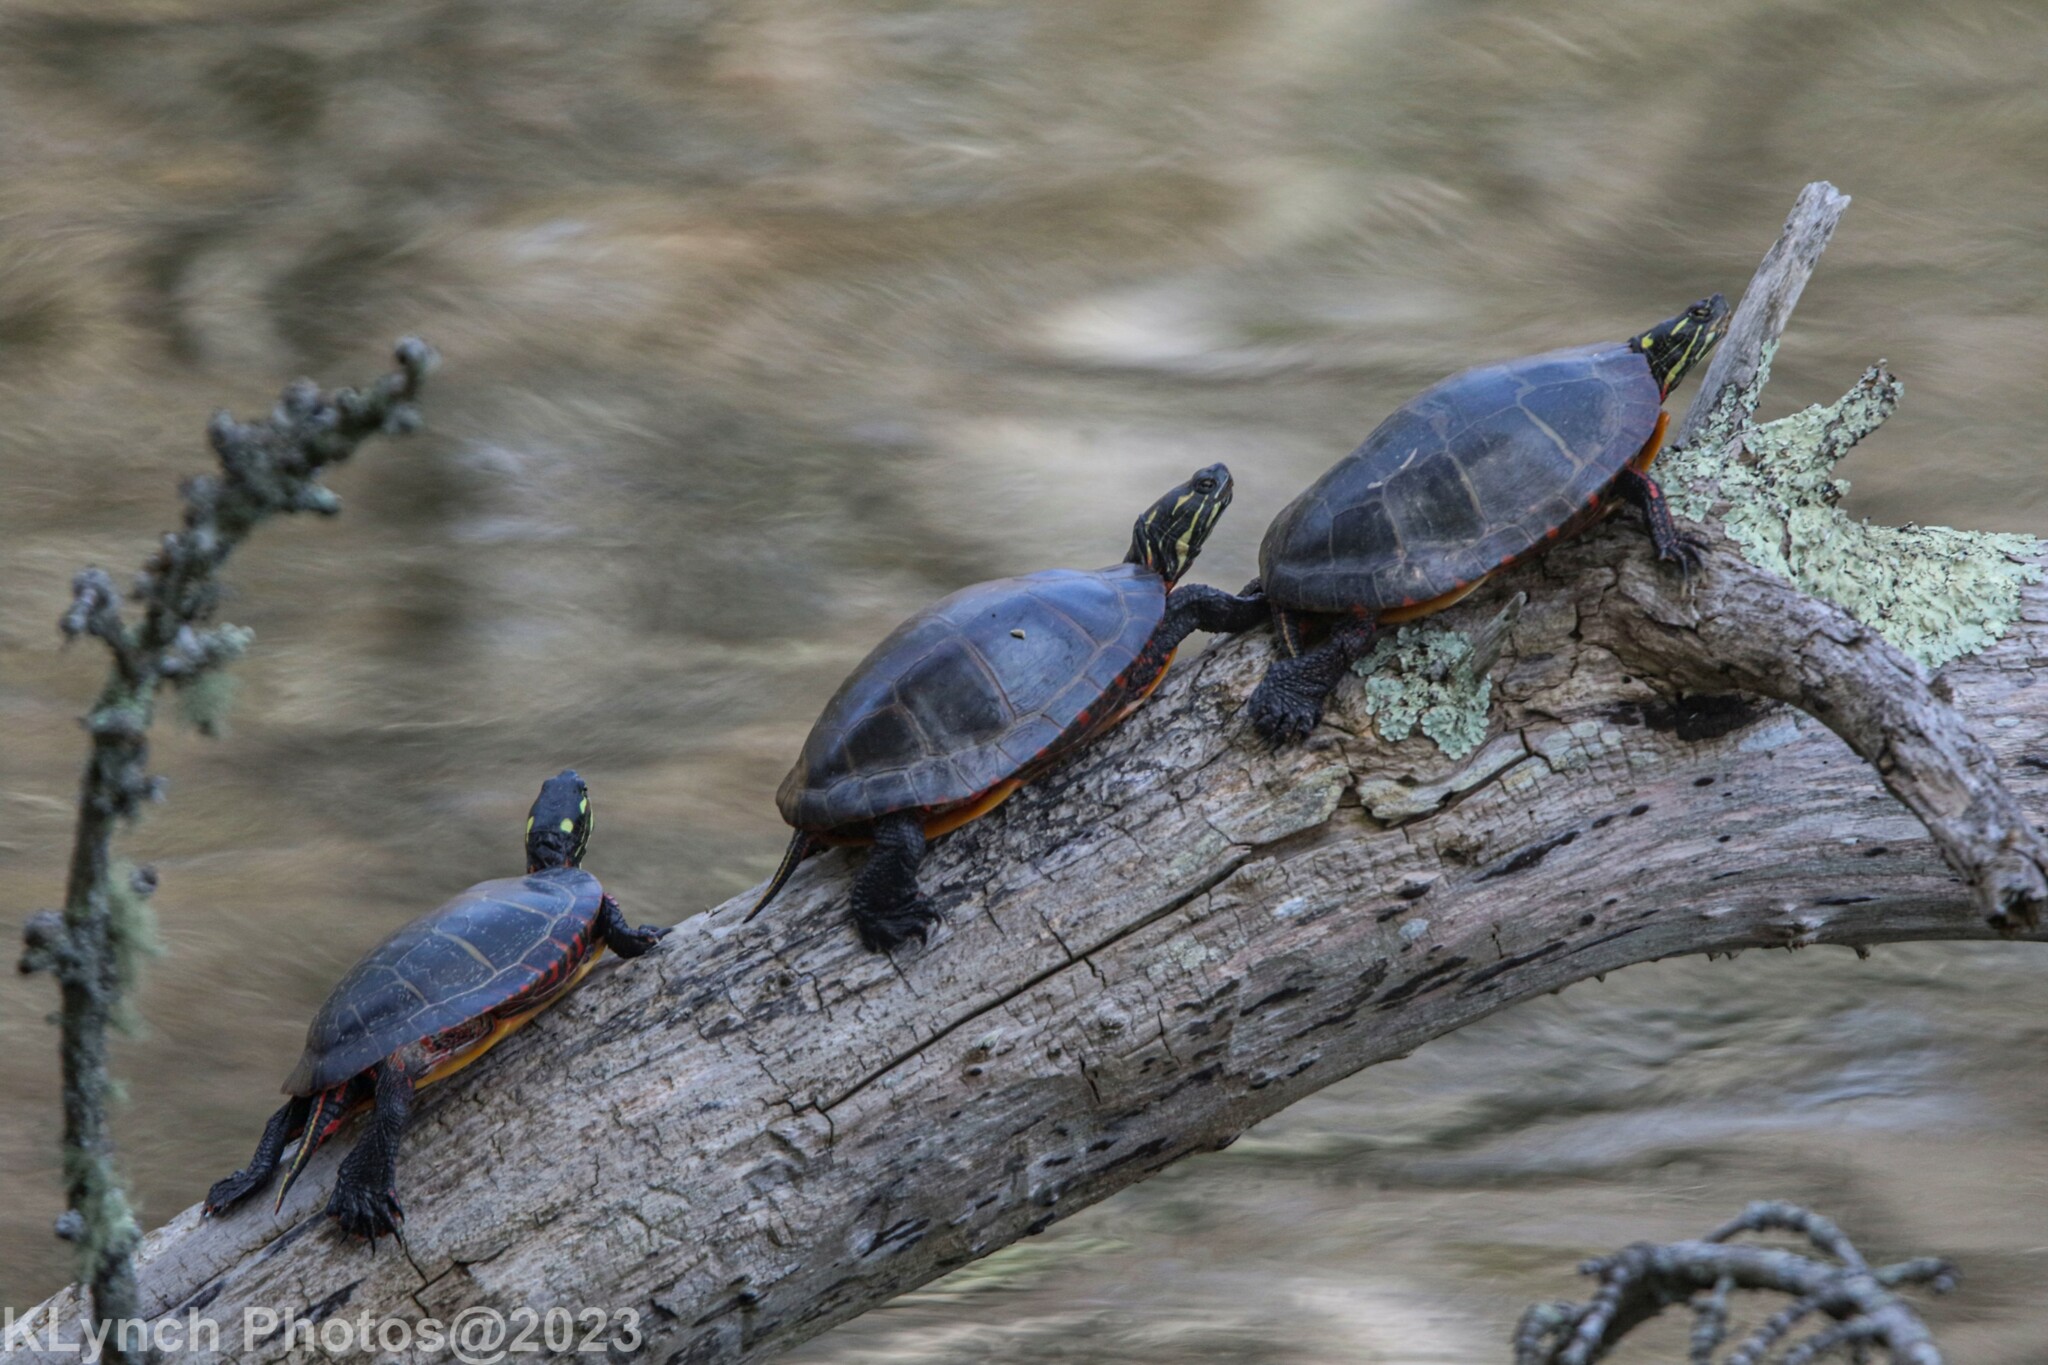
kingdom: Animalia
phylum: Chordata
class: Testudines
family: Emydidae
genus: Chrysemys
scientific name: Chrysemys picta
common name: Painted turtle
